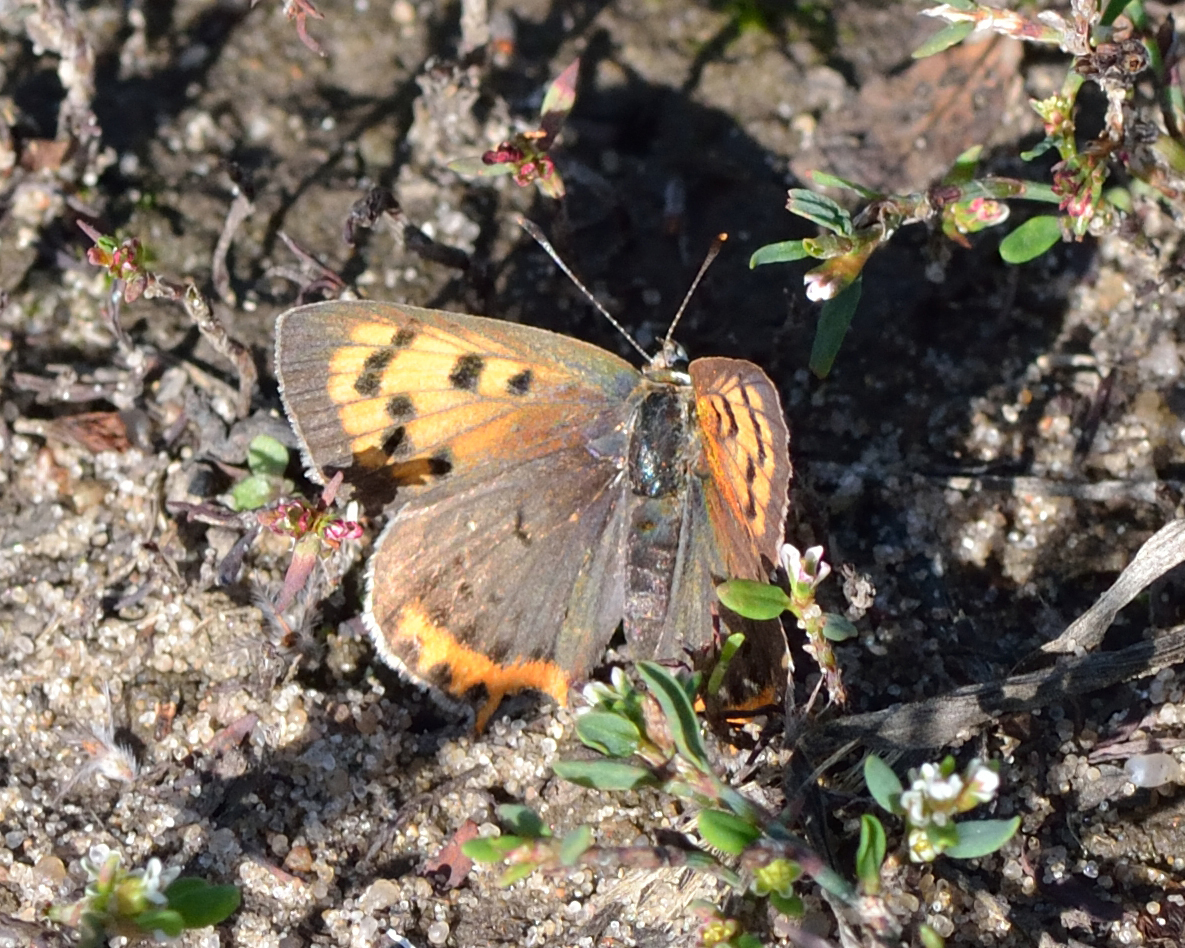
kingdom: Animalia
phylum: Arthropoda
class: Insecta
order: Lepidoptera
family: Lycaenidae
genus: Lycaena
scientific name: Lycaena phlaeas
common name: Small copper
